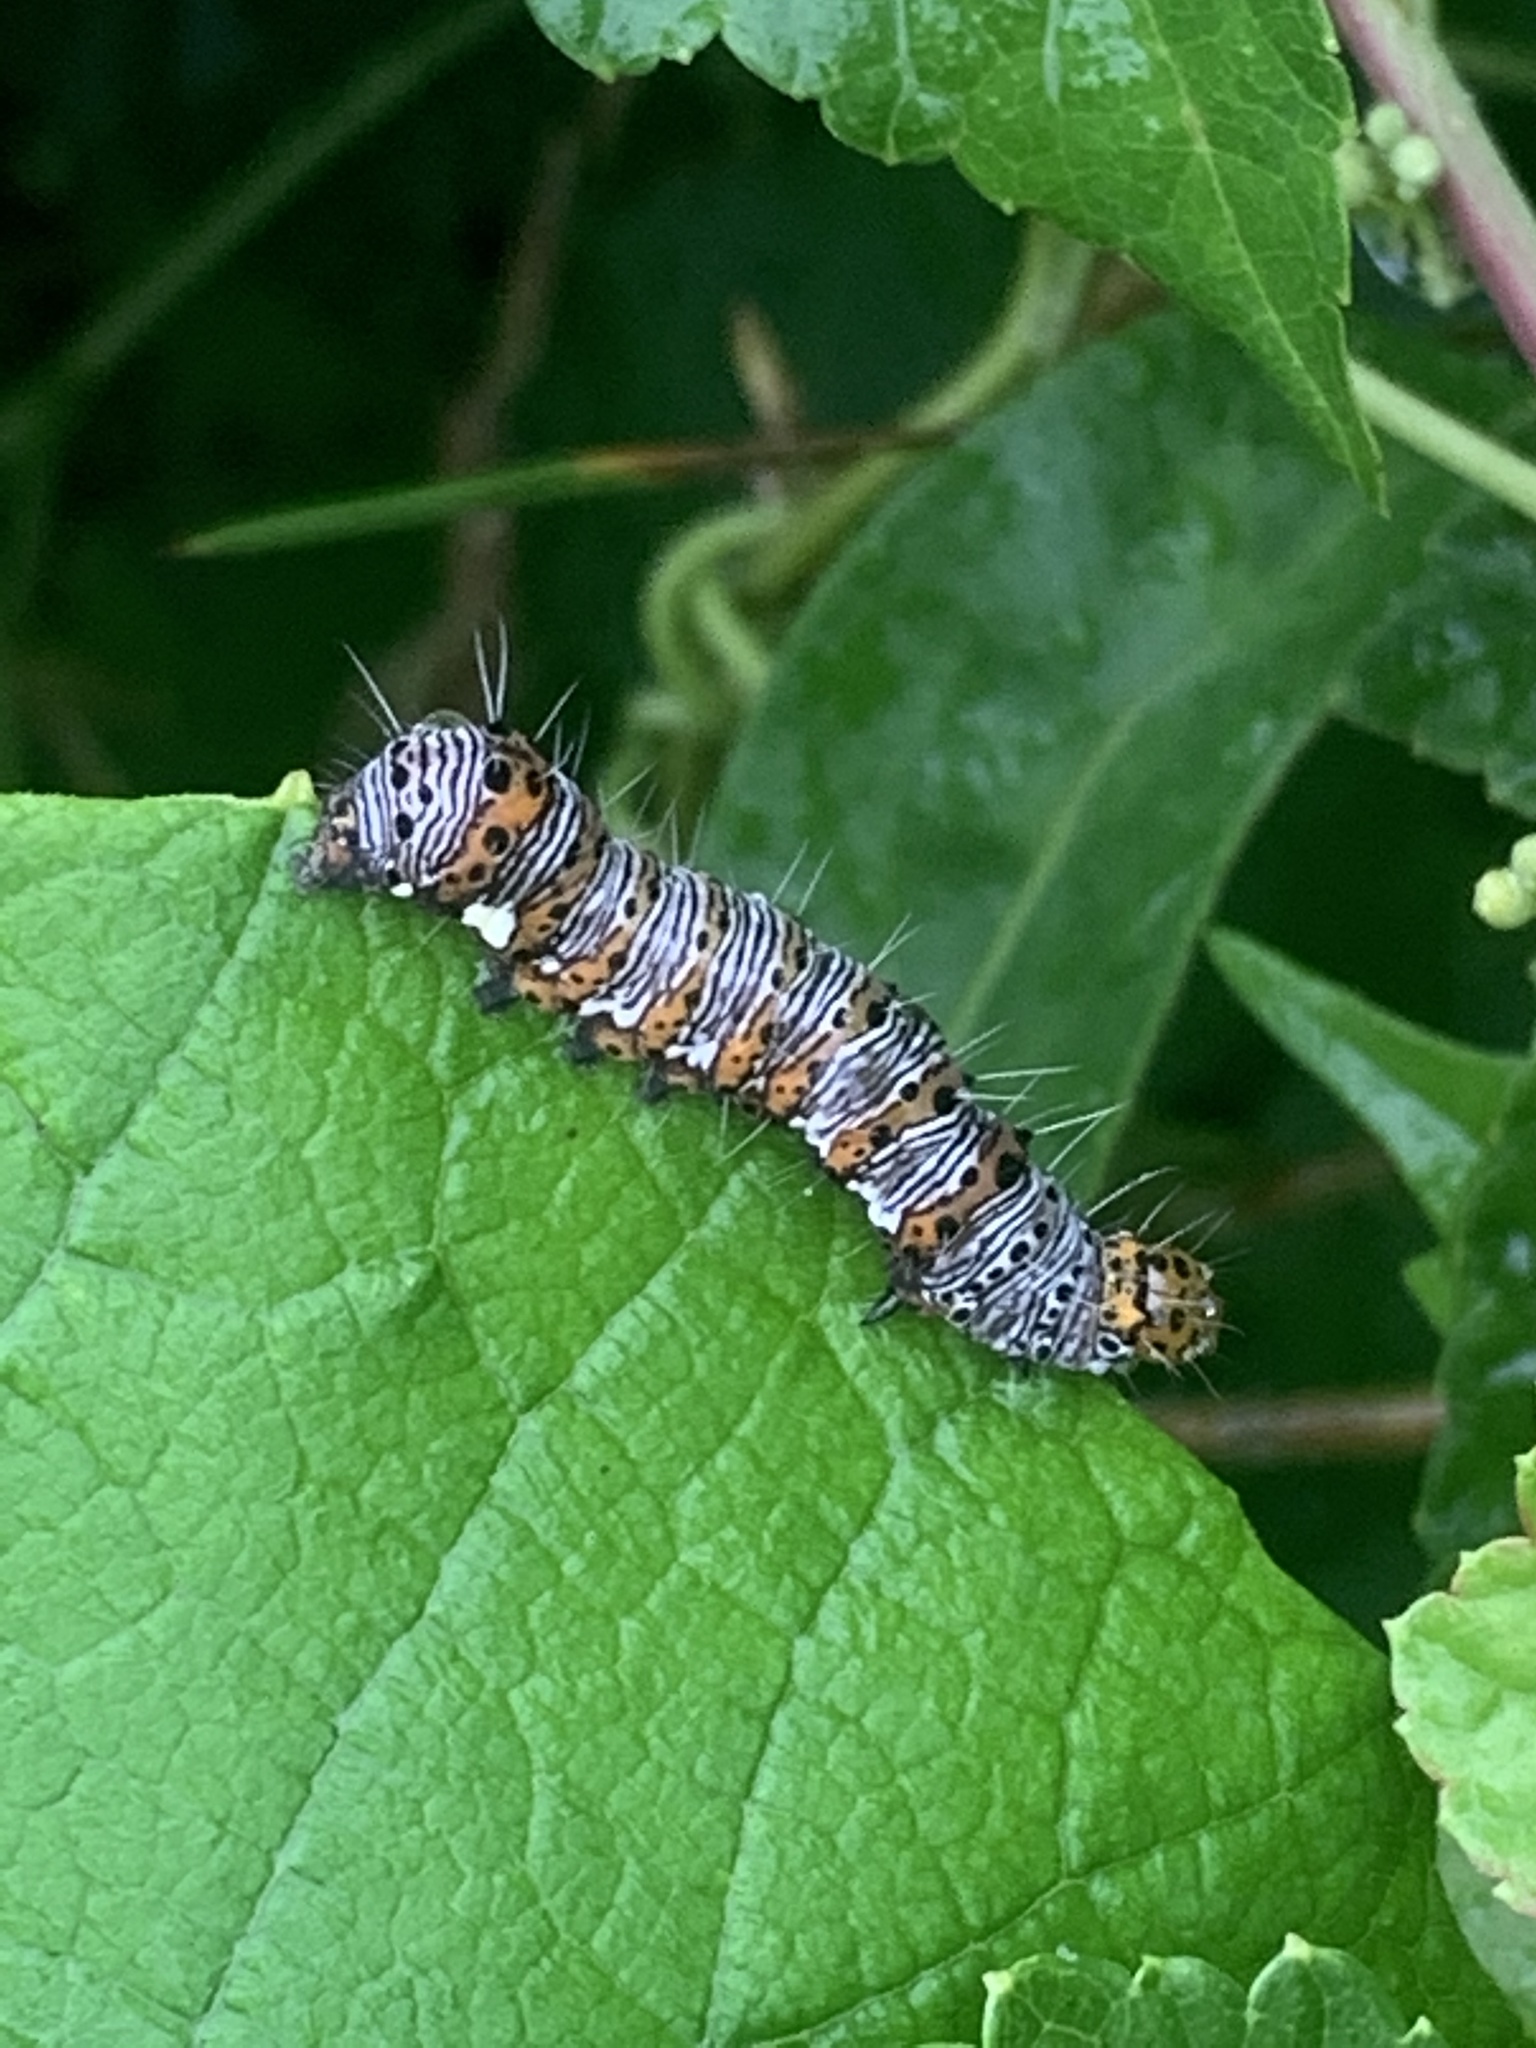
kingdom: Animalia
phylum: Arthropoda
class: Insecta
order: Lepidoptera
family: Noctuidae
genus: Alypia
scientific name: Alypia octomaculata
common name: Eight-spotted forester
